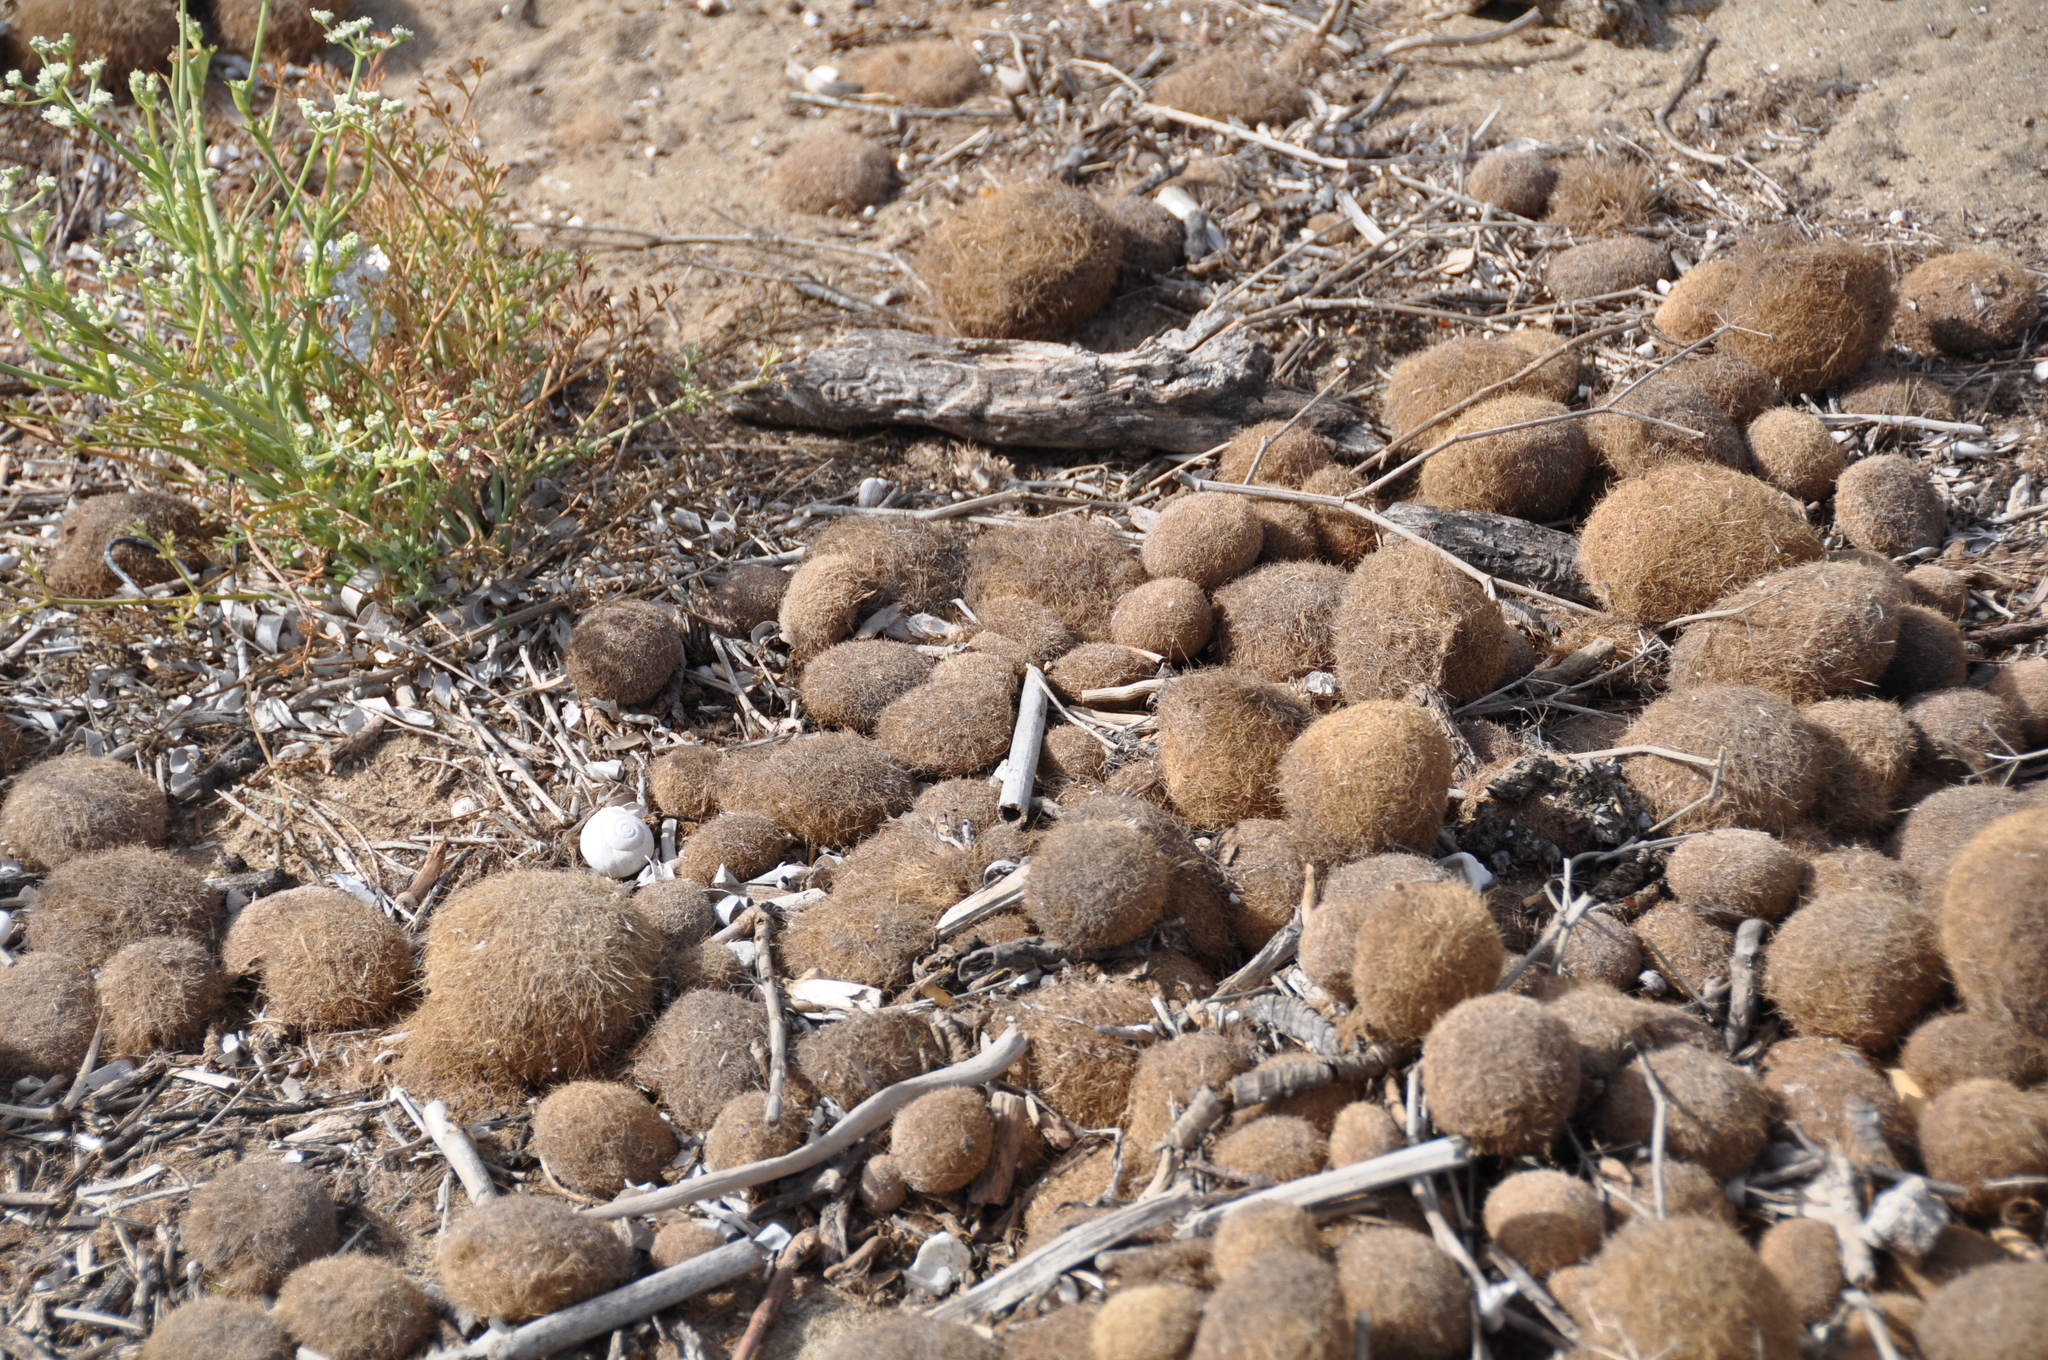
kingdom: Plantae
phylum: Tracheophyta
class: Liliopsida
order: Alismatales
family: Posidoniaceae
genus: Posidonia
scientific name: Posidonia oceanica
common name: Mediterranean tapeweed
